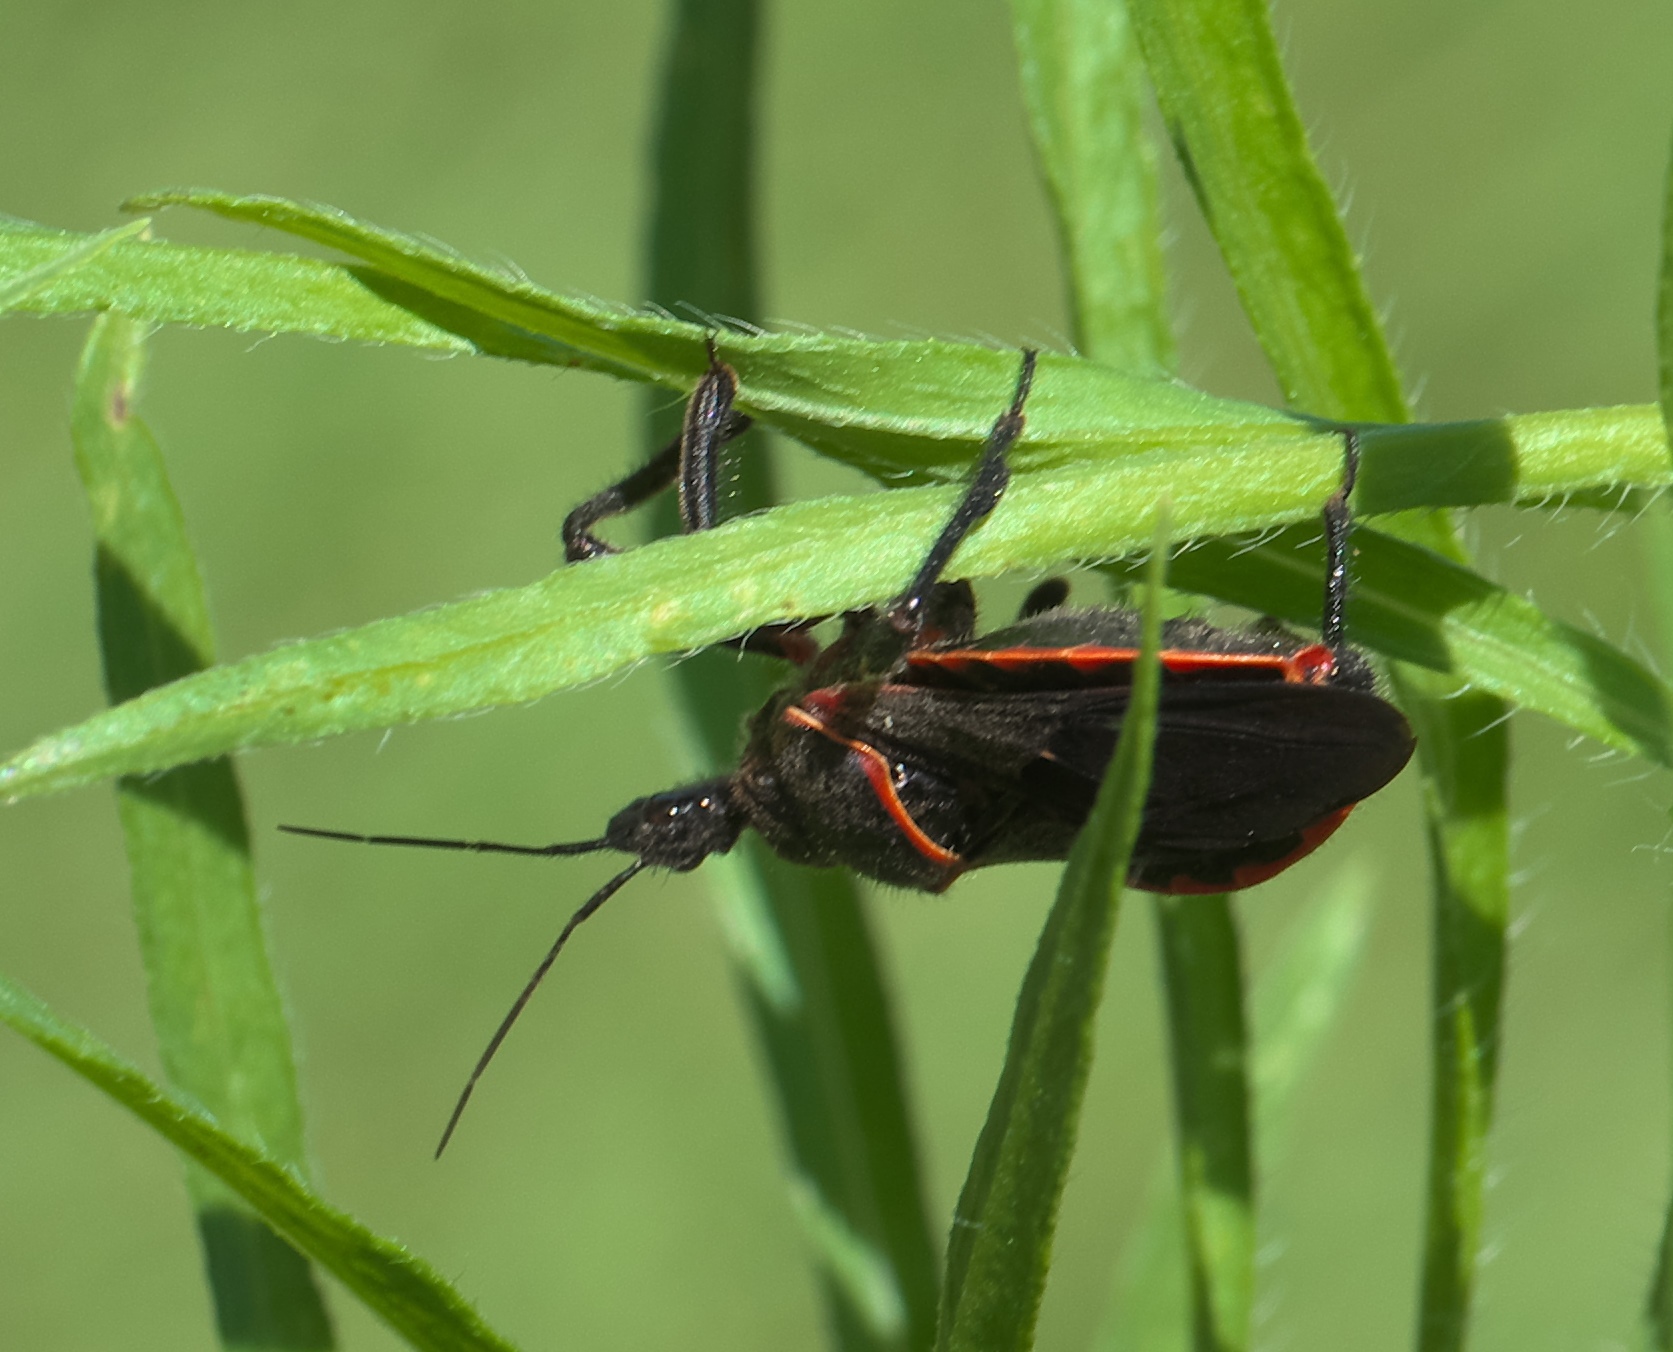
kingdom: Animalia
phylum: Arthropoda
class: Insecta
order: Hemiptera
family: Reduviidae
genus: Apiomerus
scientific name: Apiomerus crassipes
